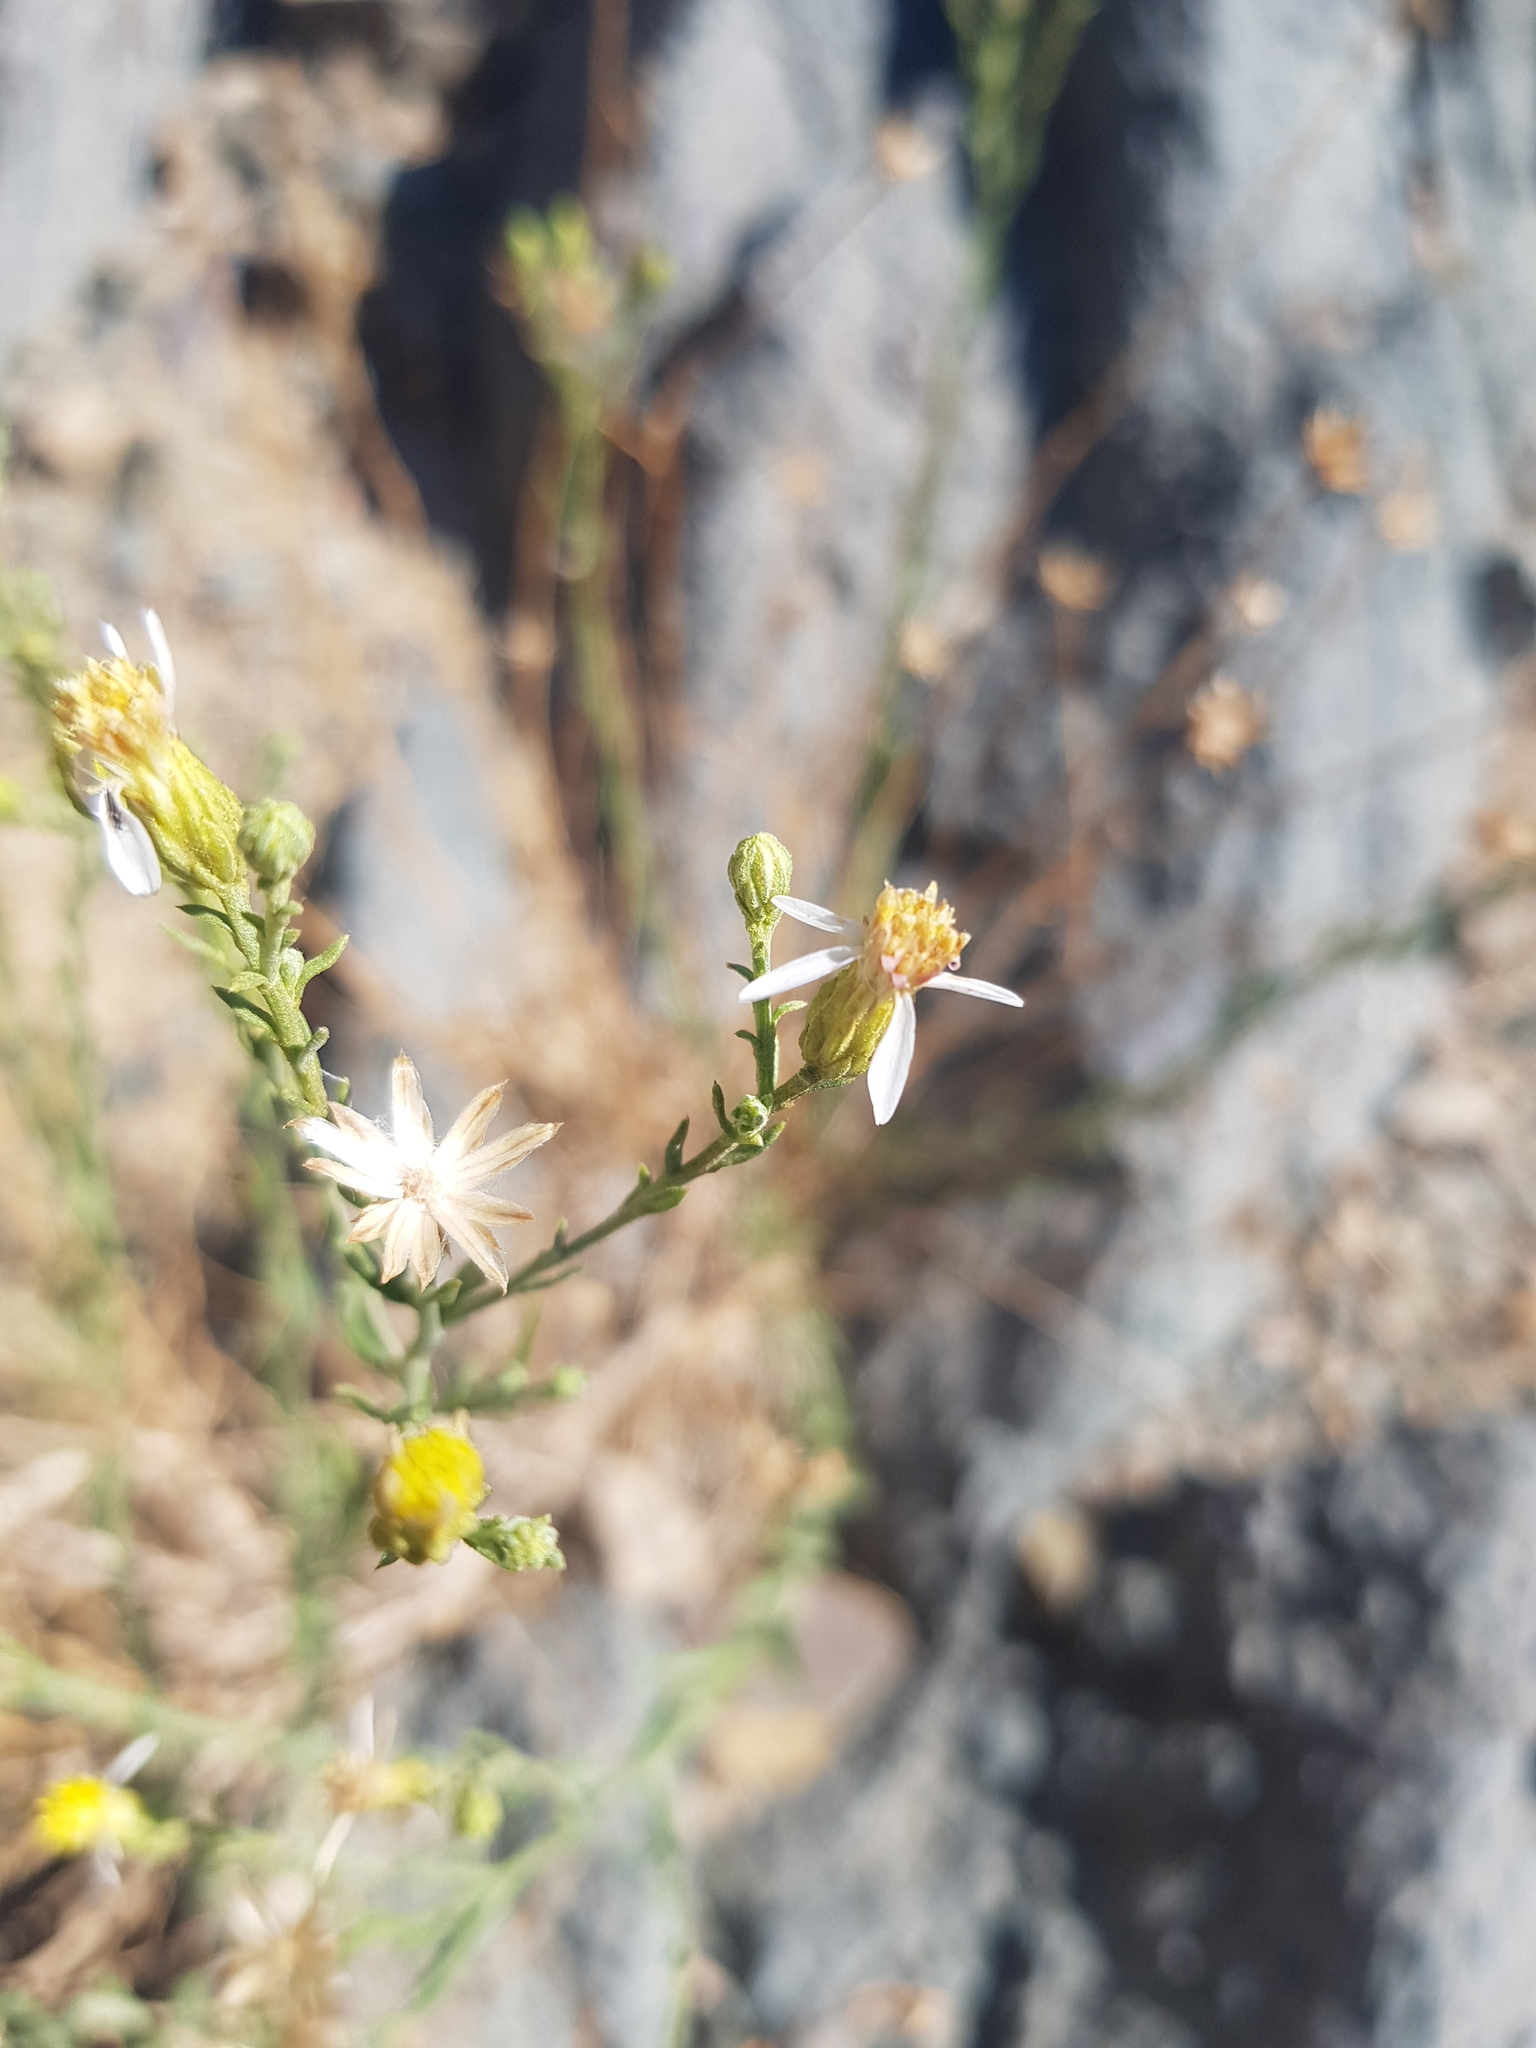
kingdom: Plantae
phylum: Tracheophyta
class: Magnoliopsida
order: Asterales
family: Asteraceae
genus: Asterothamnus
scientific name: Asterothamnus molliusculus
